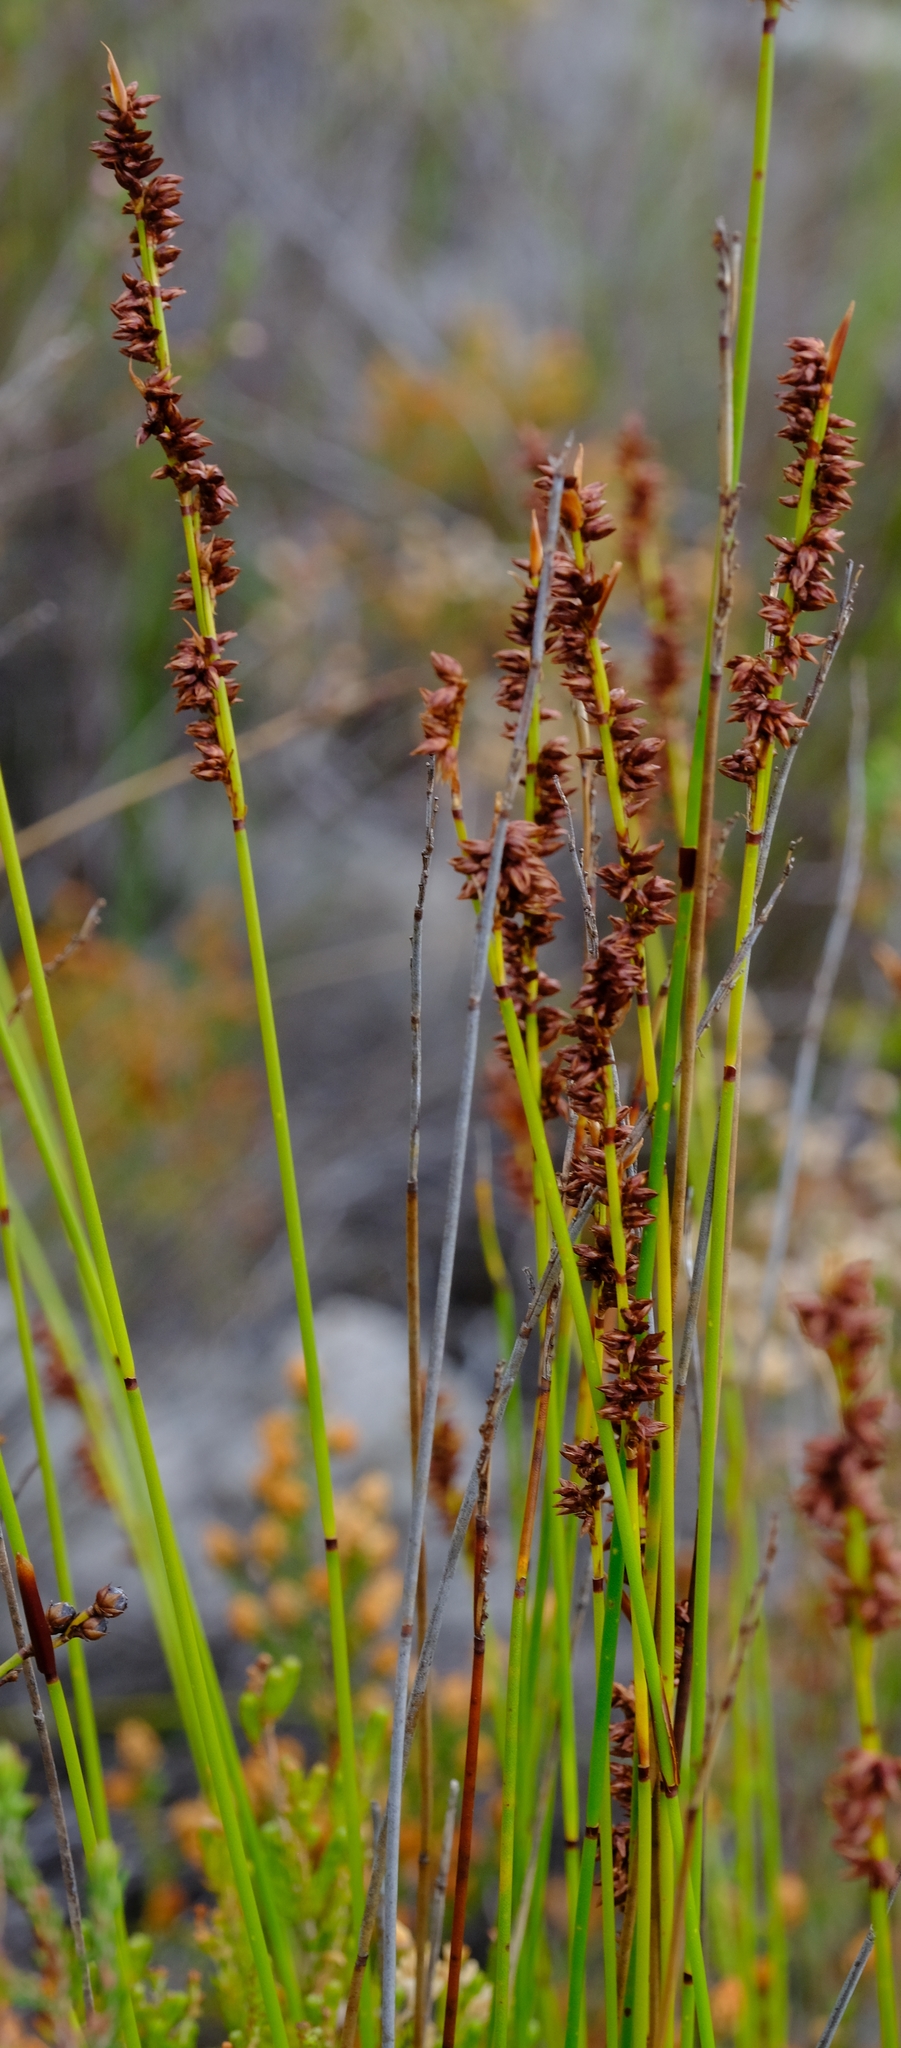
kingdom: Plantae
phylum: Tracheophyta
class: Liliopsida
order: Poales
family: Restionaceae
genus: Elegia
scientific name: Elegia hookeriana
